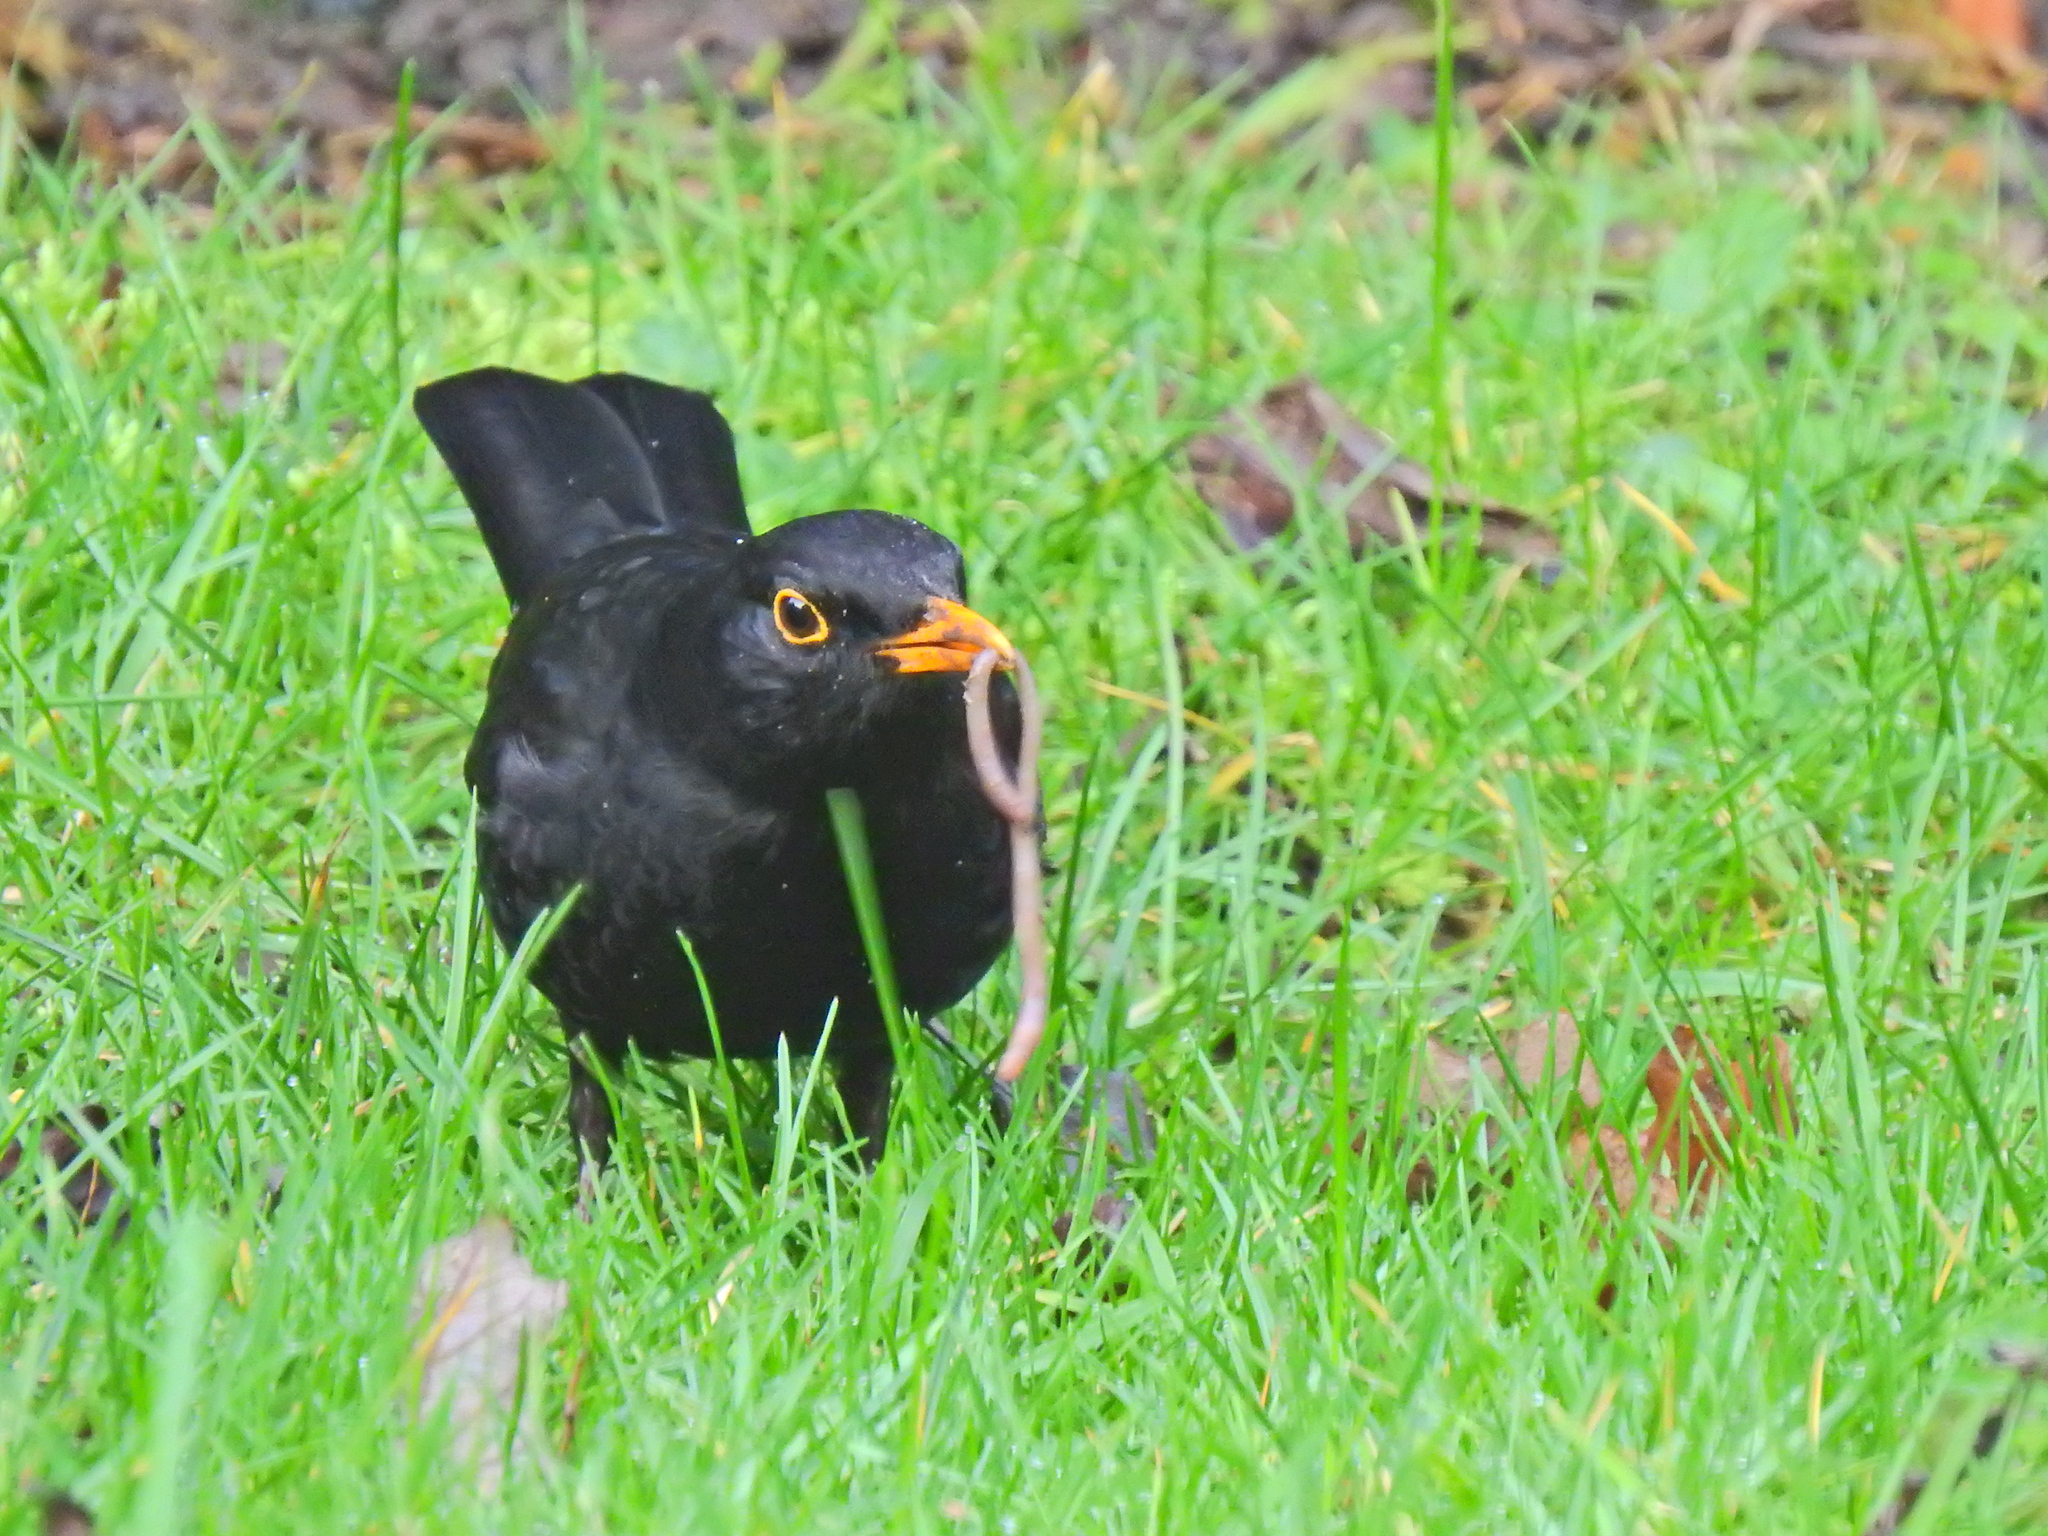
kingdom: Animalia
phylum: Chordata
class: Aves
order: Passeriformes
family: Turdidae
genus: Turdus
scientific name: Turdus merula
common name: Common blackbird
